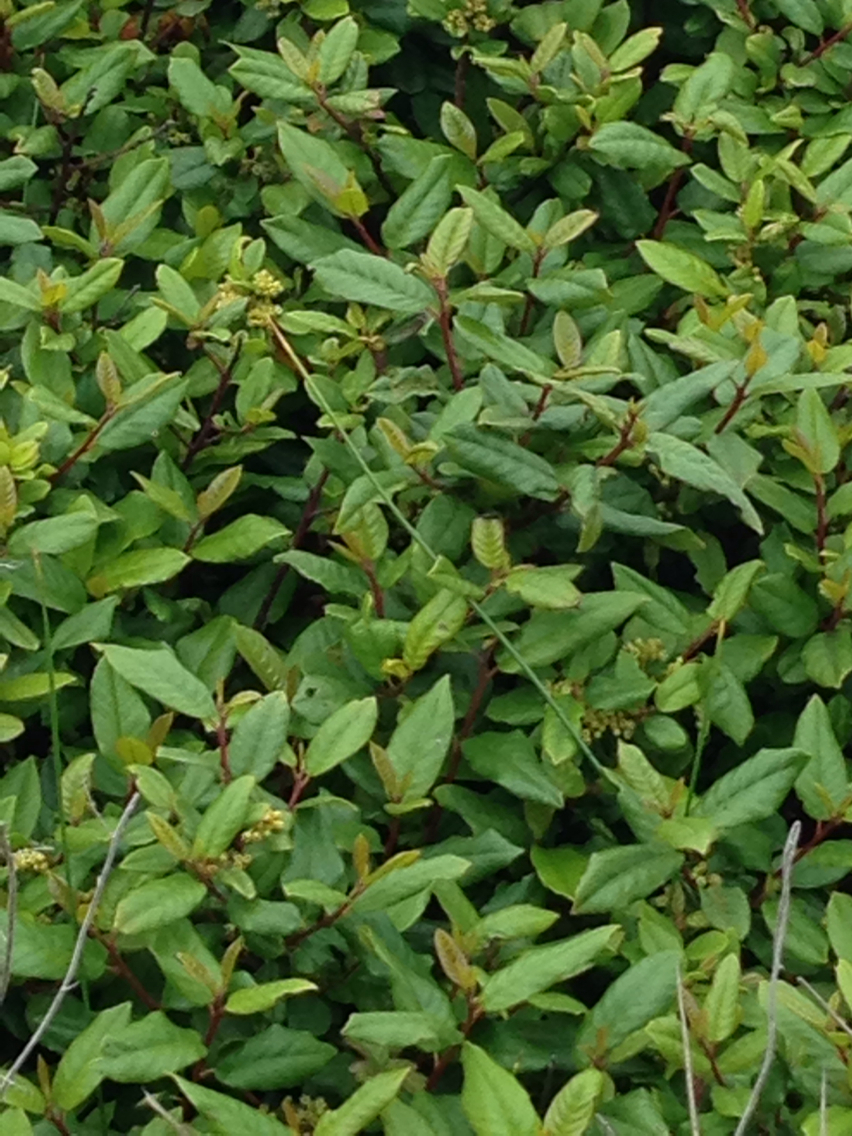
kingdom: Plantae
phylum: Tracheophyta
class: Magnoliopsida
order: Rosales
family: Rhamnaceae
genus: Frangula
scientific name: Frangula californica
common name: California buckthorn
